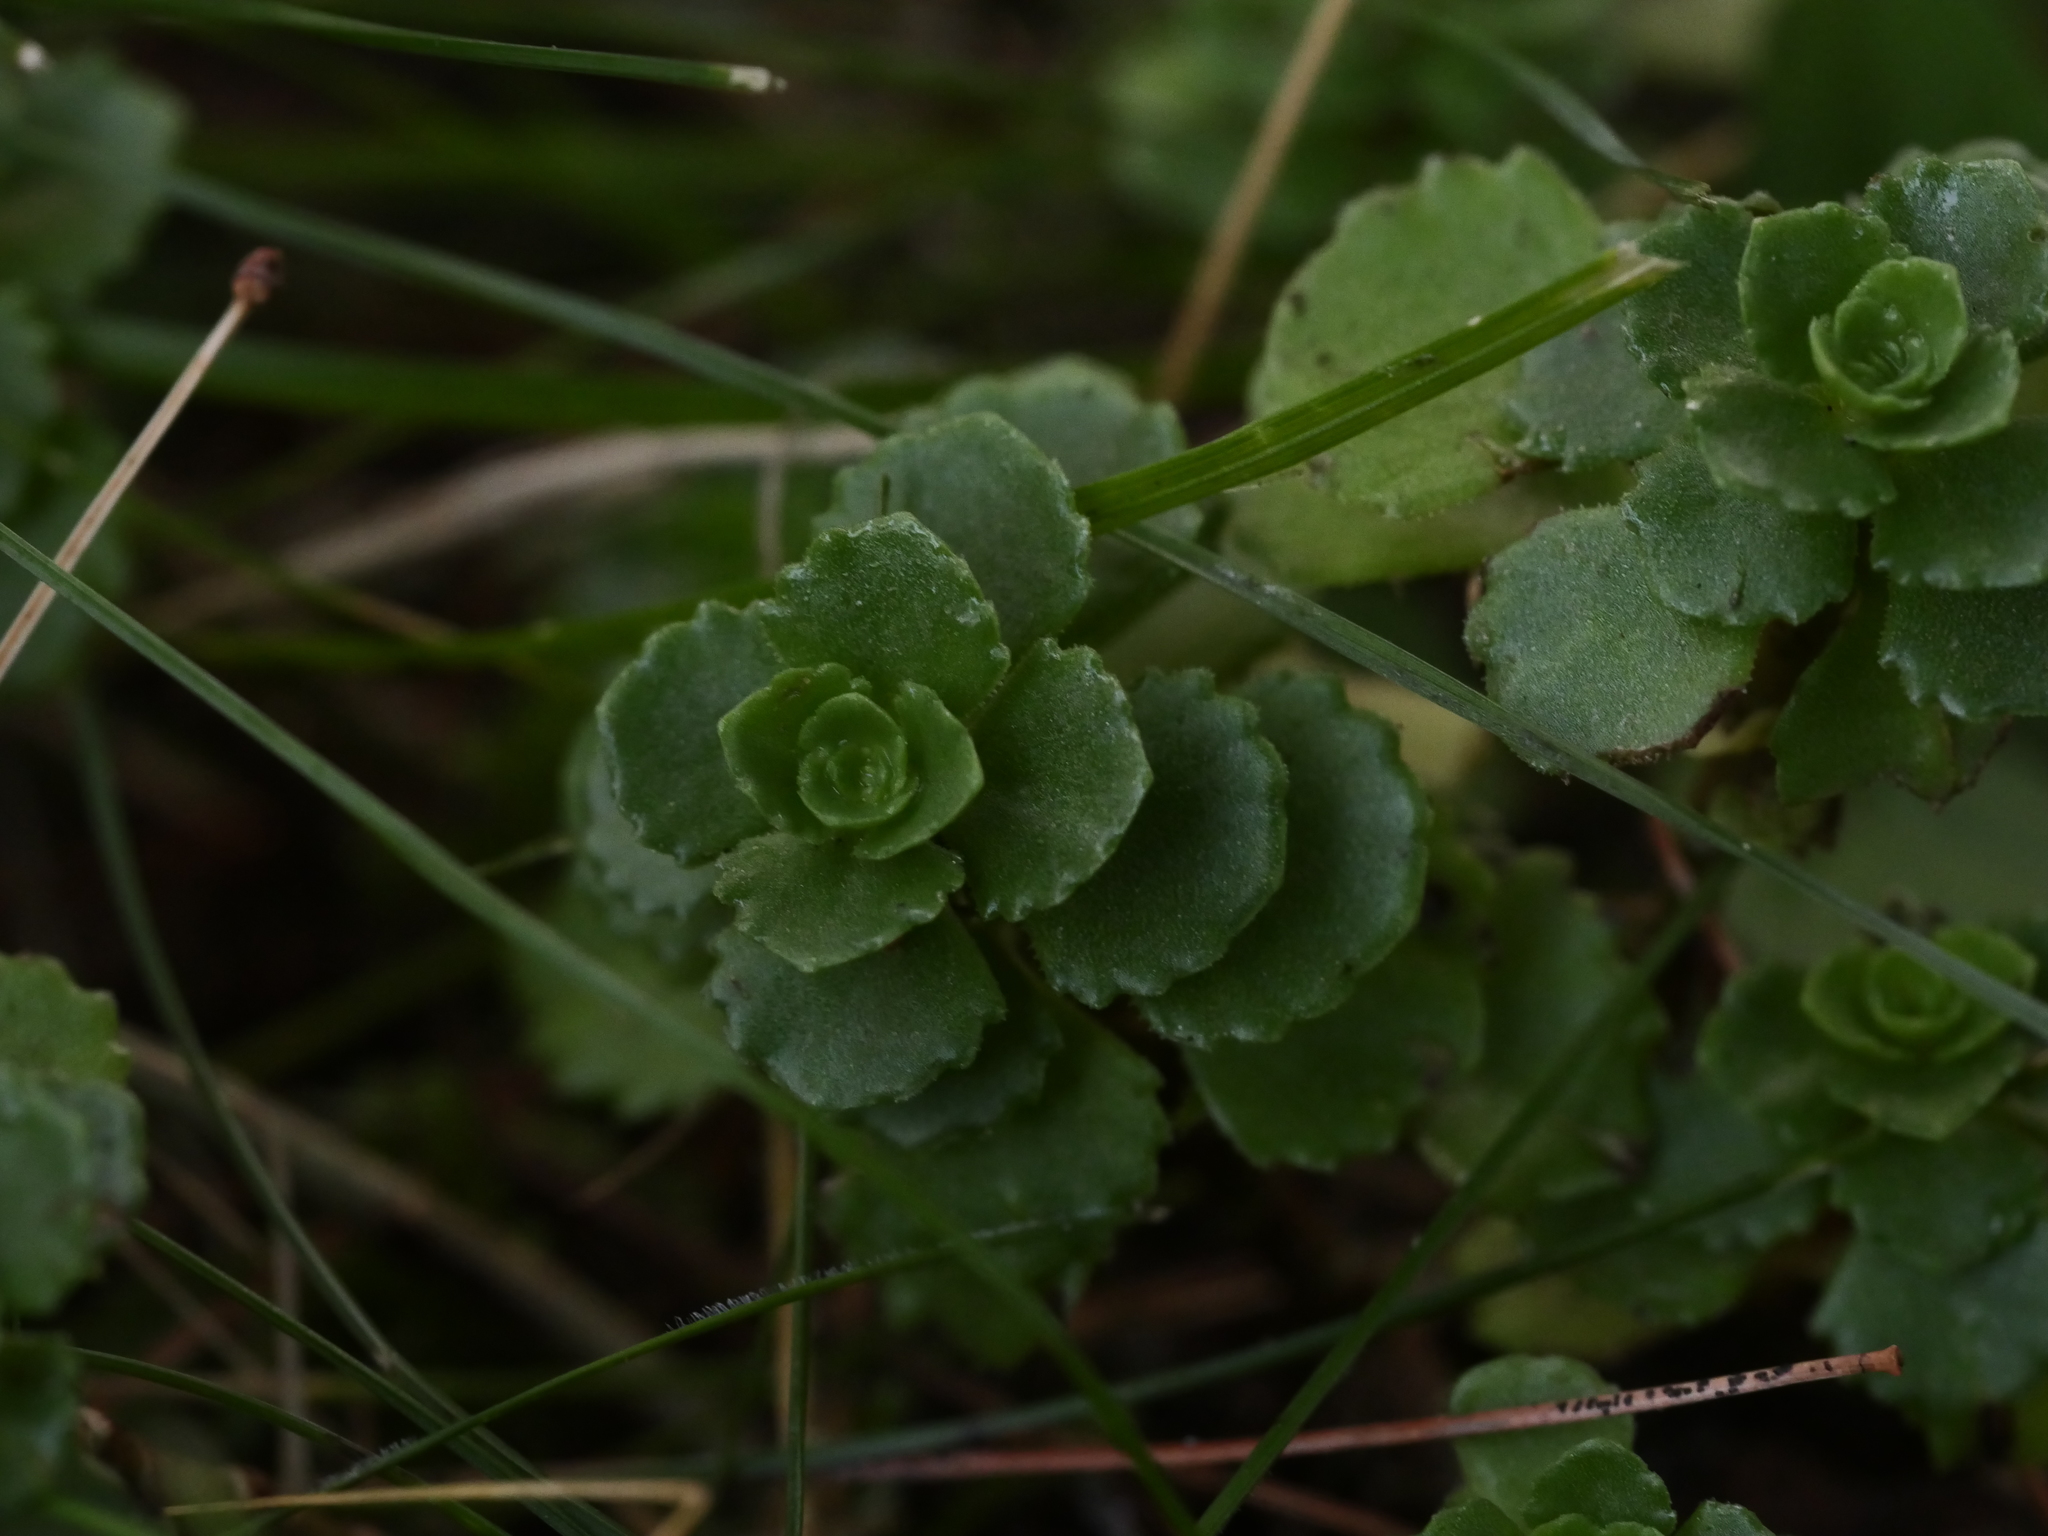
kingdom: Plantae
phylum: Tracheophyta
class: Magnoliopsida
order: Saxifragales
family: Crassulaceae
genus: Phedimus
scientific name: Phedimus spurius
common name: Caucasian stonecrop
